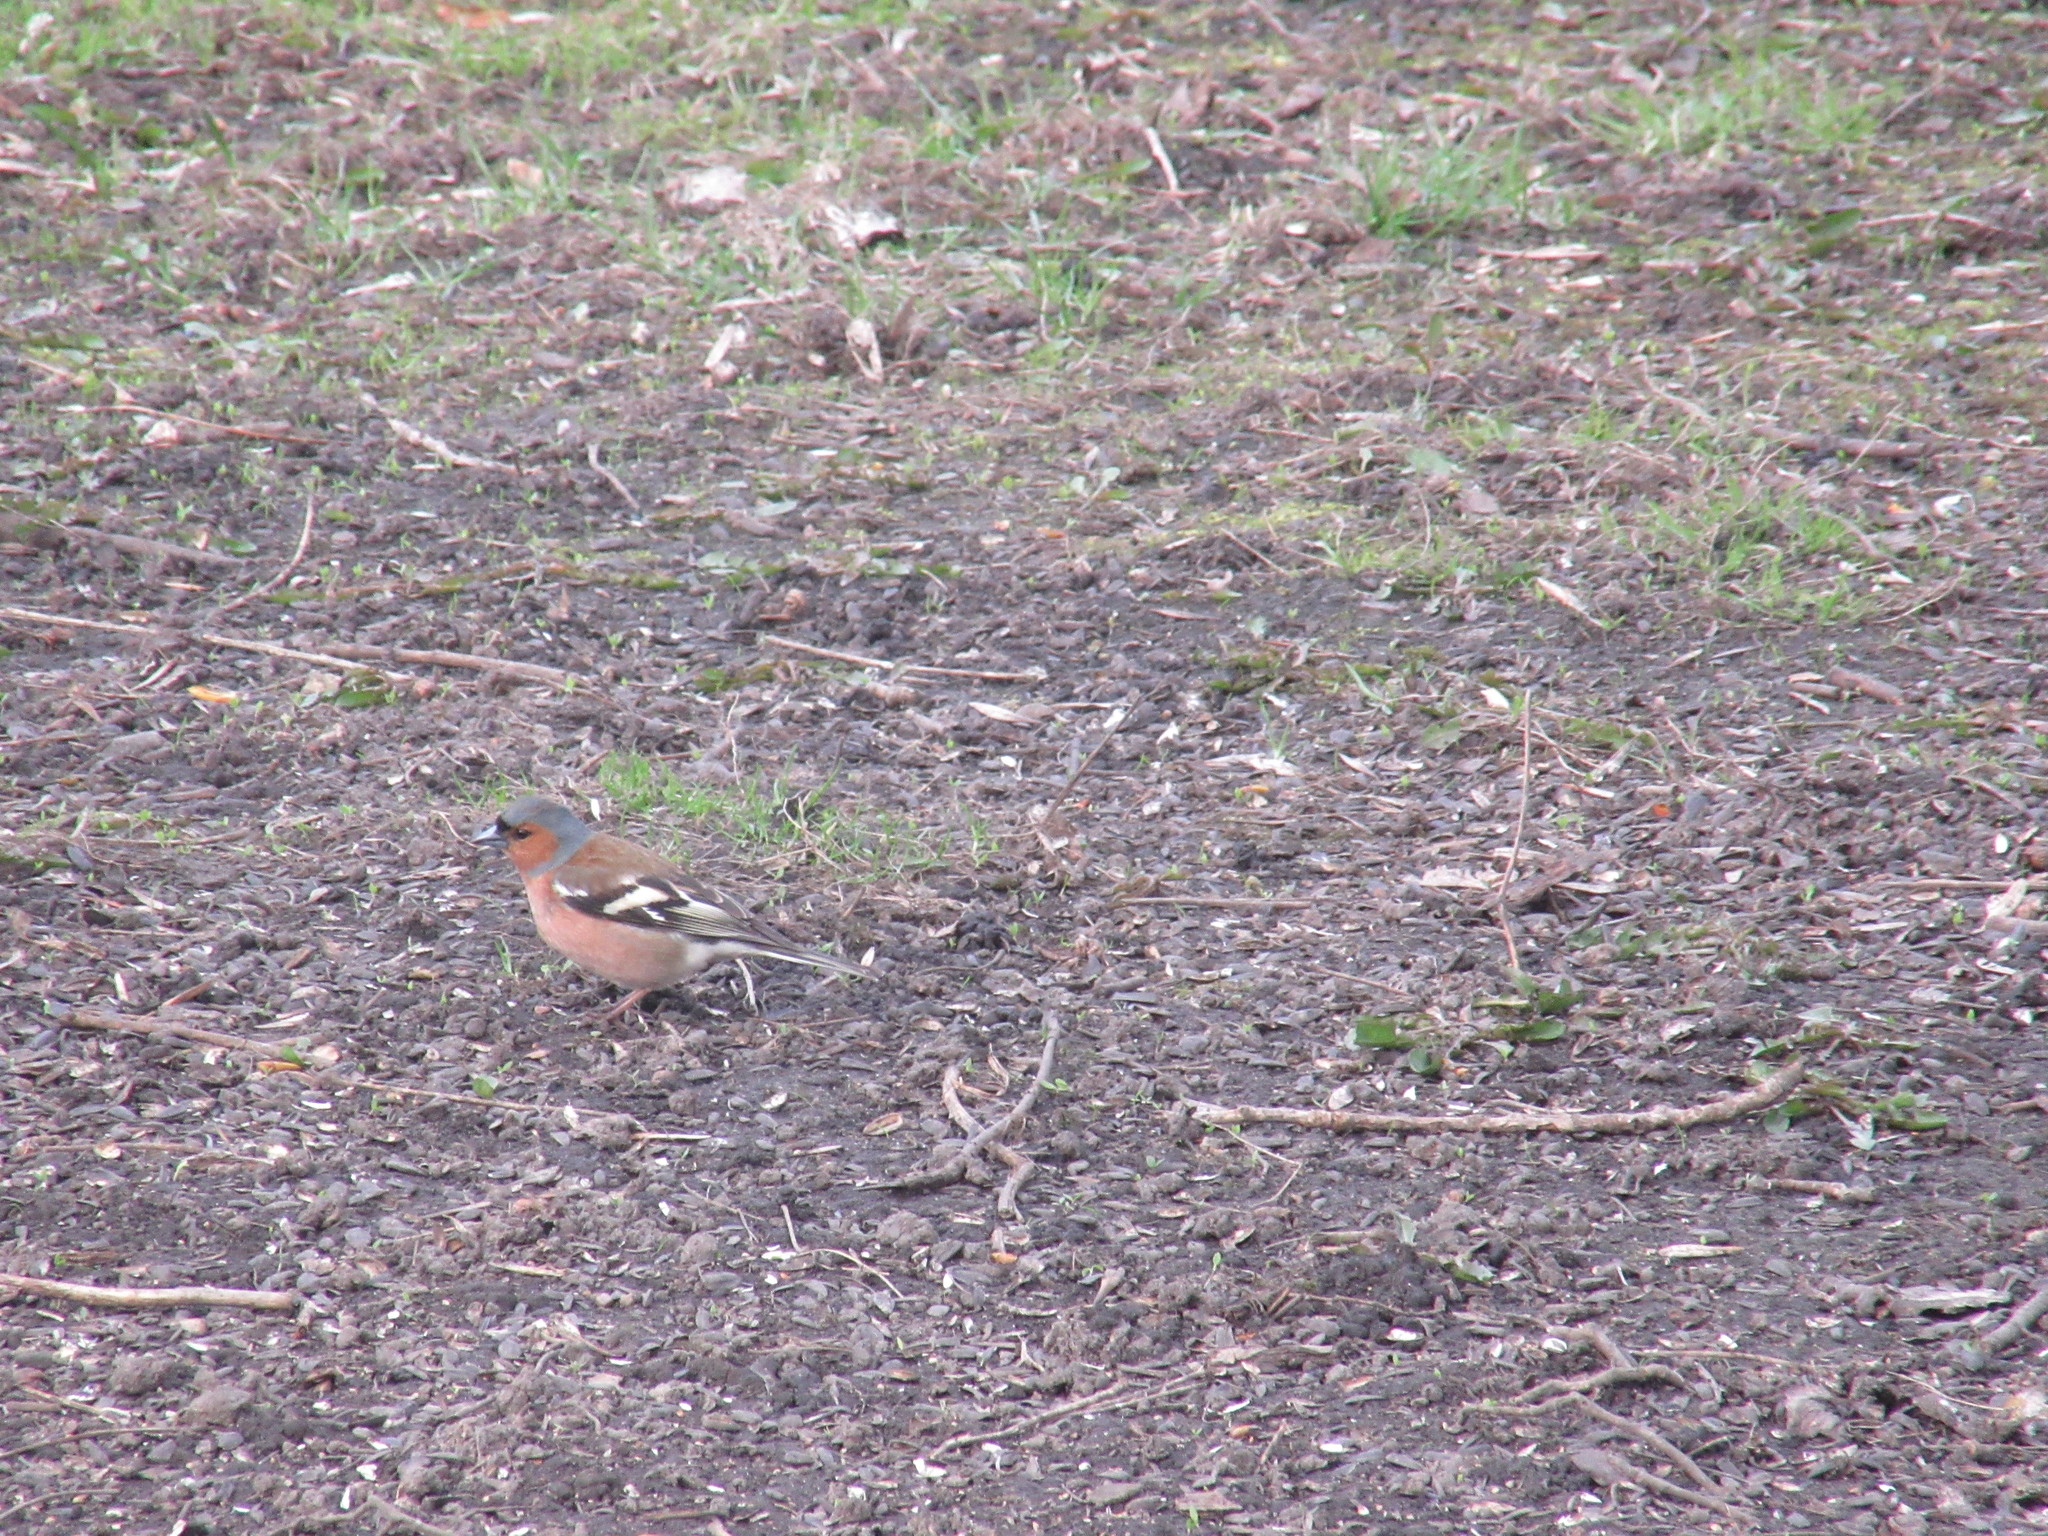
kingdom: Animalia
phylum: Chordata
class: Aves
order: Passeriformes
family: Fringillidae
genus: Fringilla
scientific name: Fringilla coelebs
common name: Common chaffinch
